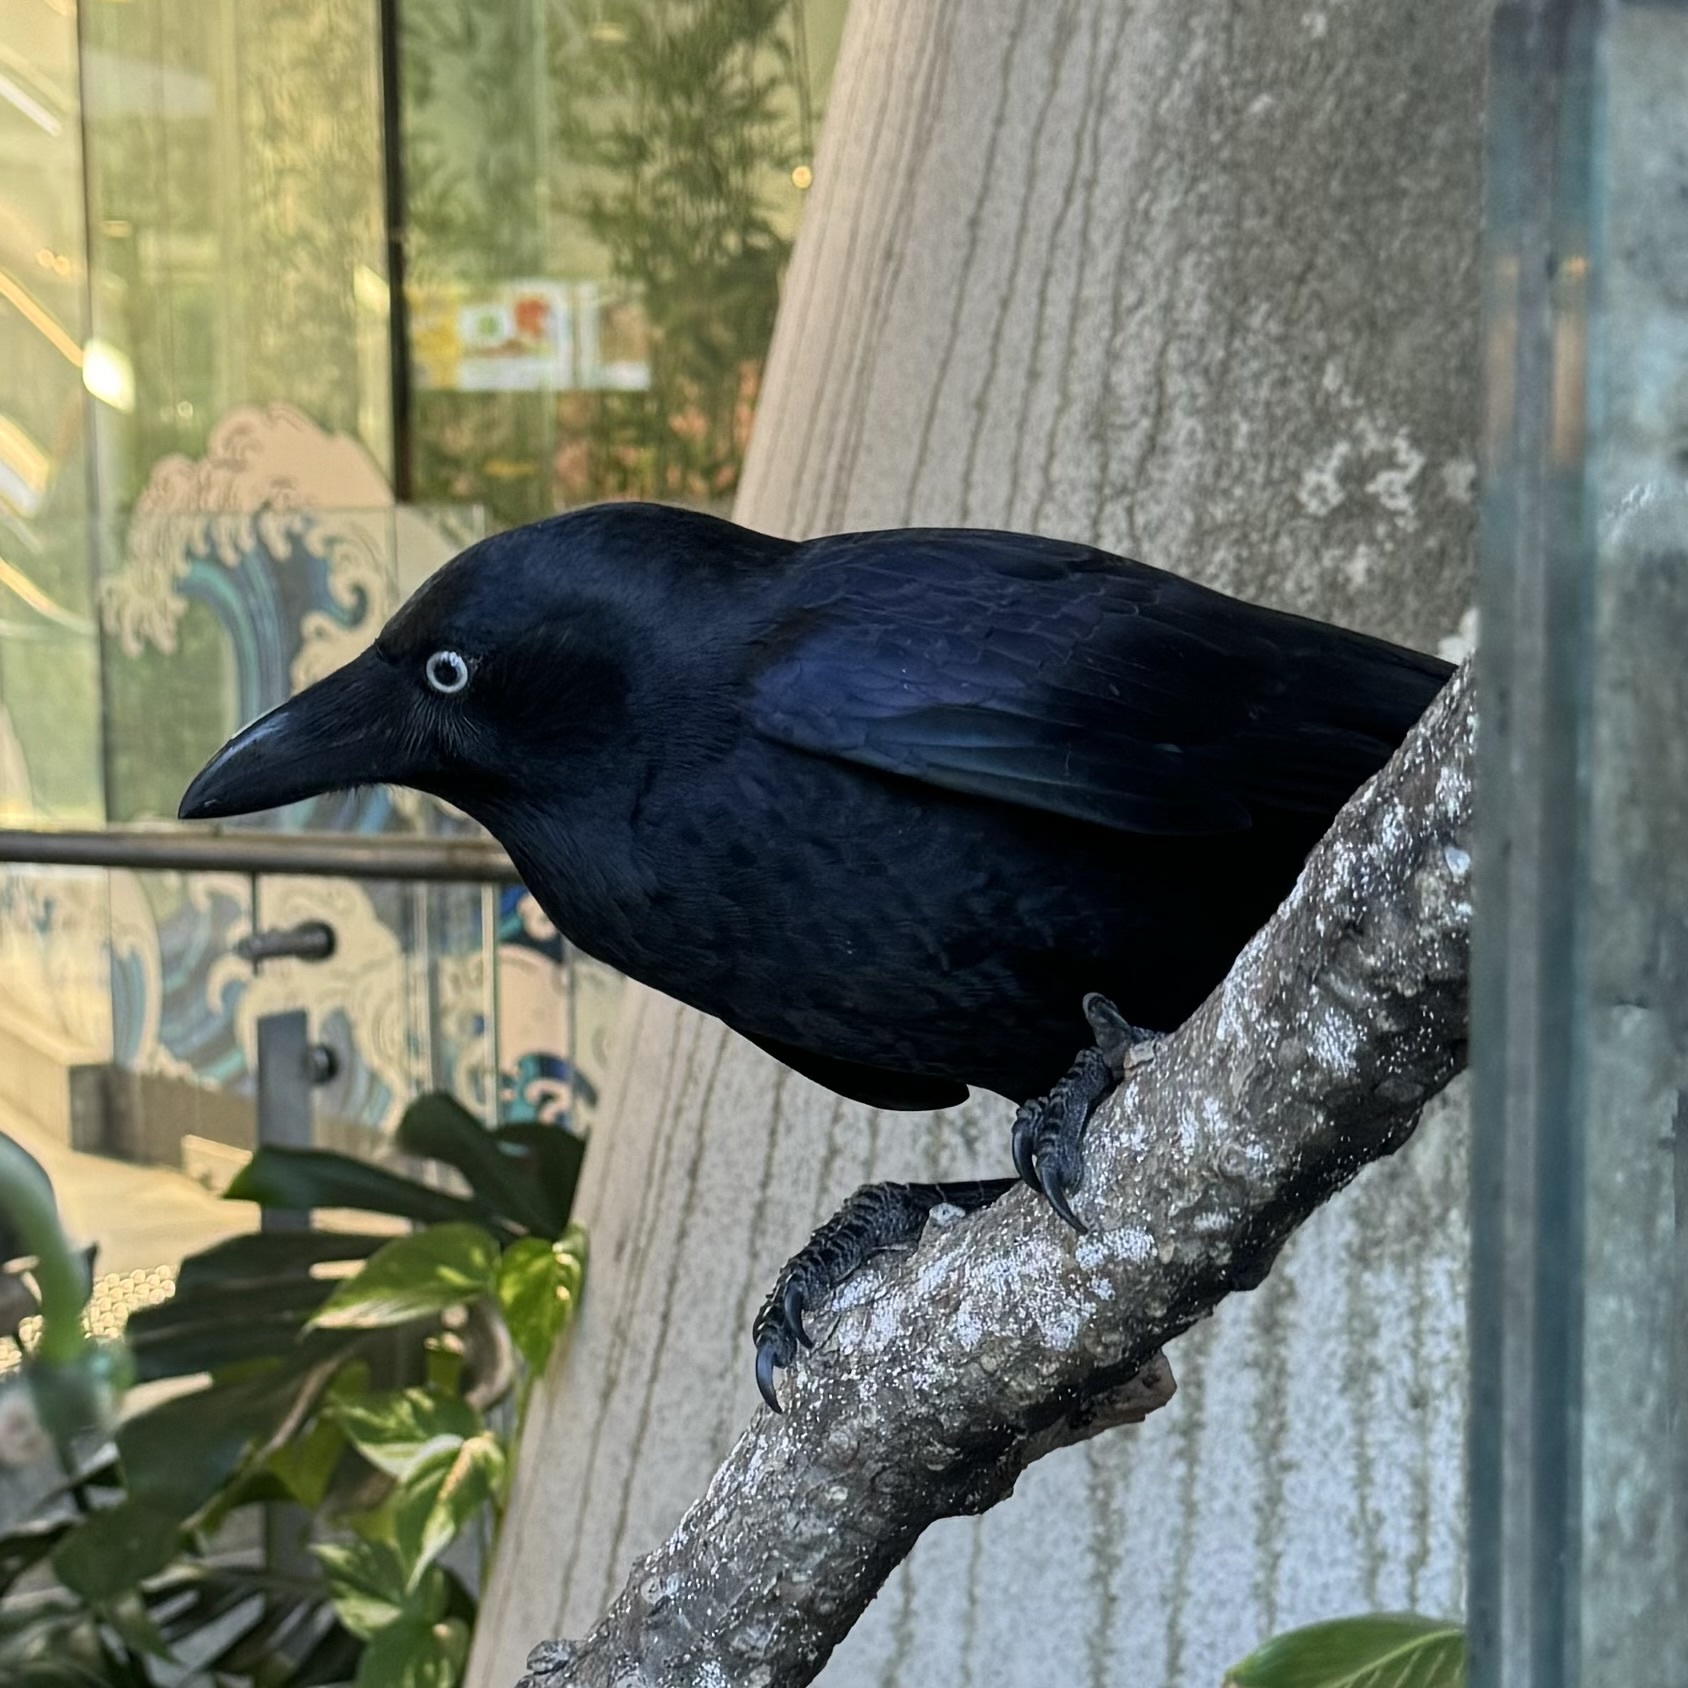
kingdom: Animalia
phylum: Chordata
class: Aves
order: Passeriformes
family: Corvidae
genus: Corvus
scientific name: Corvus orru
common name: Torresian crow
